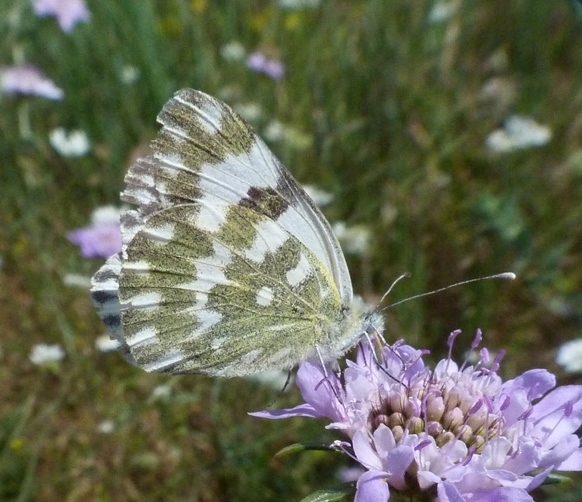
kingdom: Animalia
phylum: Arthropoda
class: Insecta
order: Lepidoptera
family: Pieridae
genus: Pontia
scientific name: Pontia daplidice
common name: Bath white
